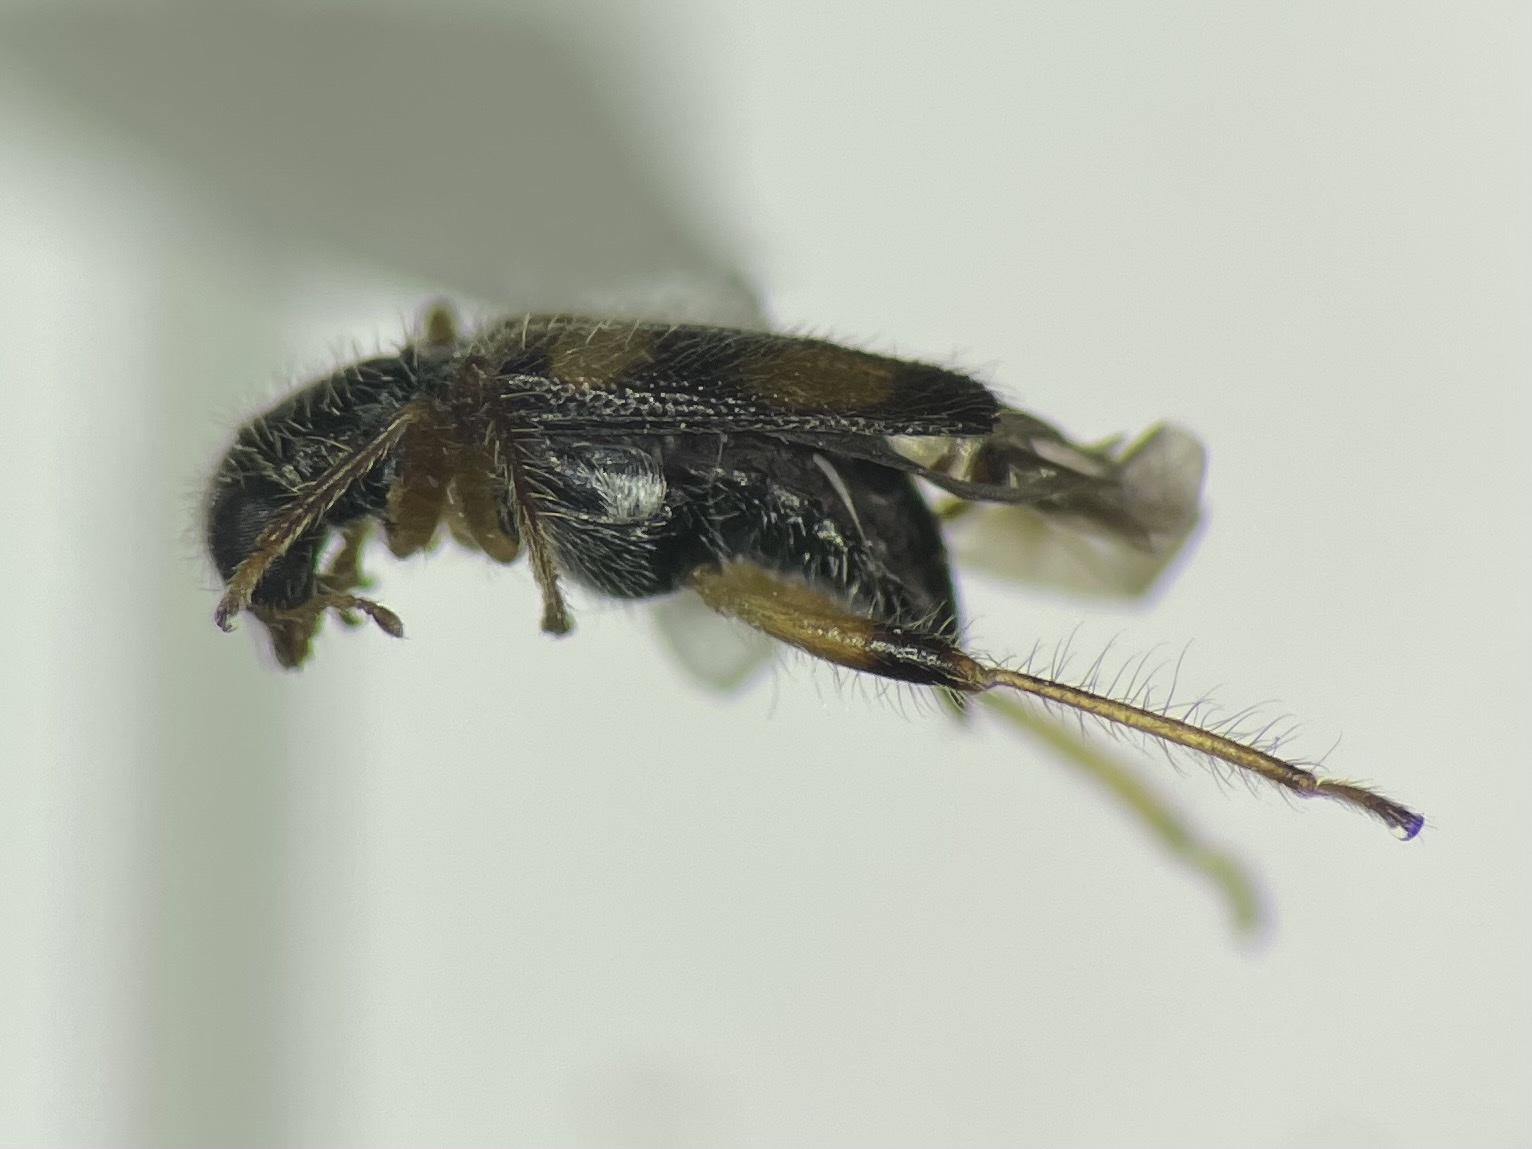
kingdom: Animalia
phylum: Arthropoda
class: Insecta
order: Coleoptera
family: Cleridae
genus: Phyllobaenus
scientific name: Phyllobaenus pallipennis
